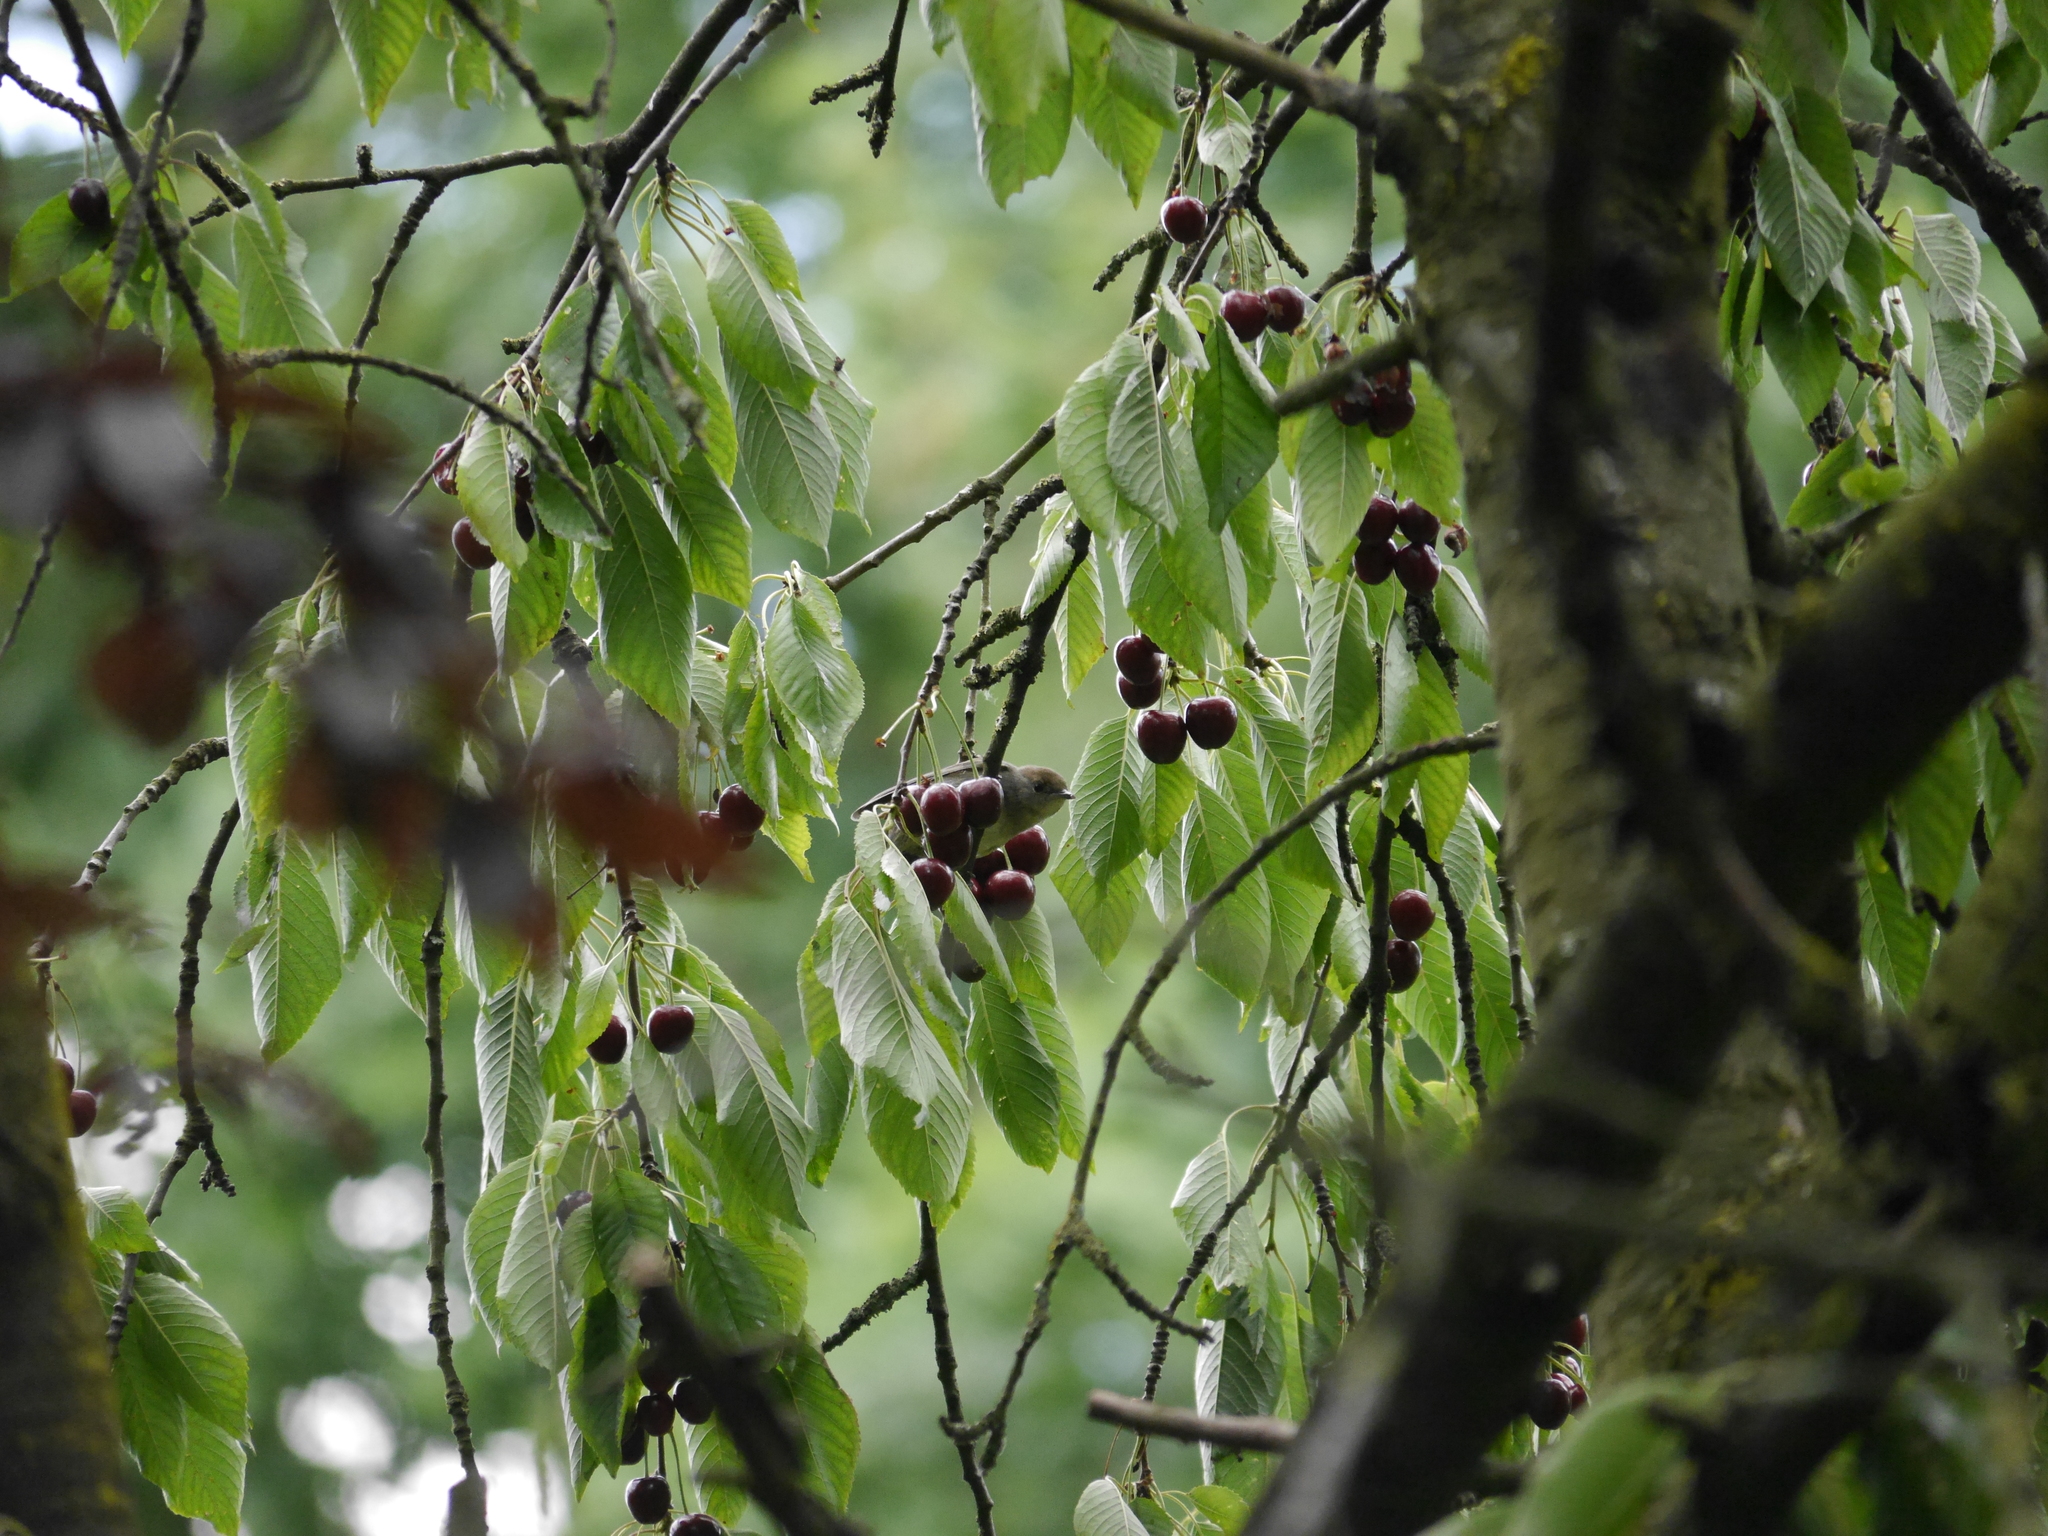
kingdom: Animalia
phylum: Chordata
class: Aves
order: Passeriformes
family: Sylviidae
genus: Sylvia
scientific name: Sylvia atricapilla
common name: Eurasian blackcap
